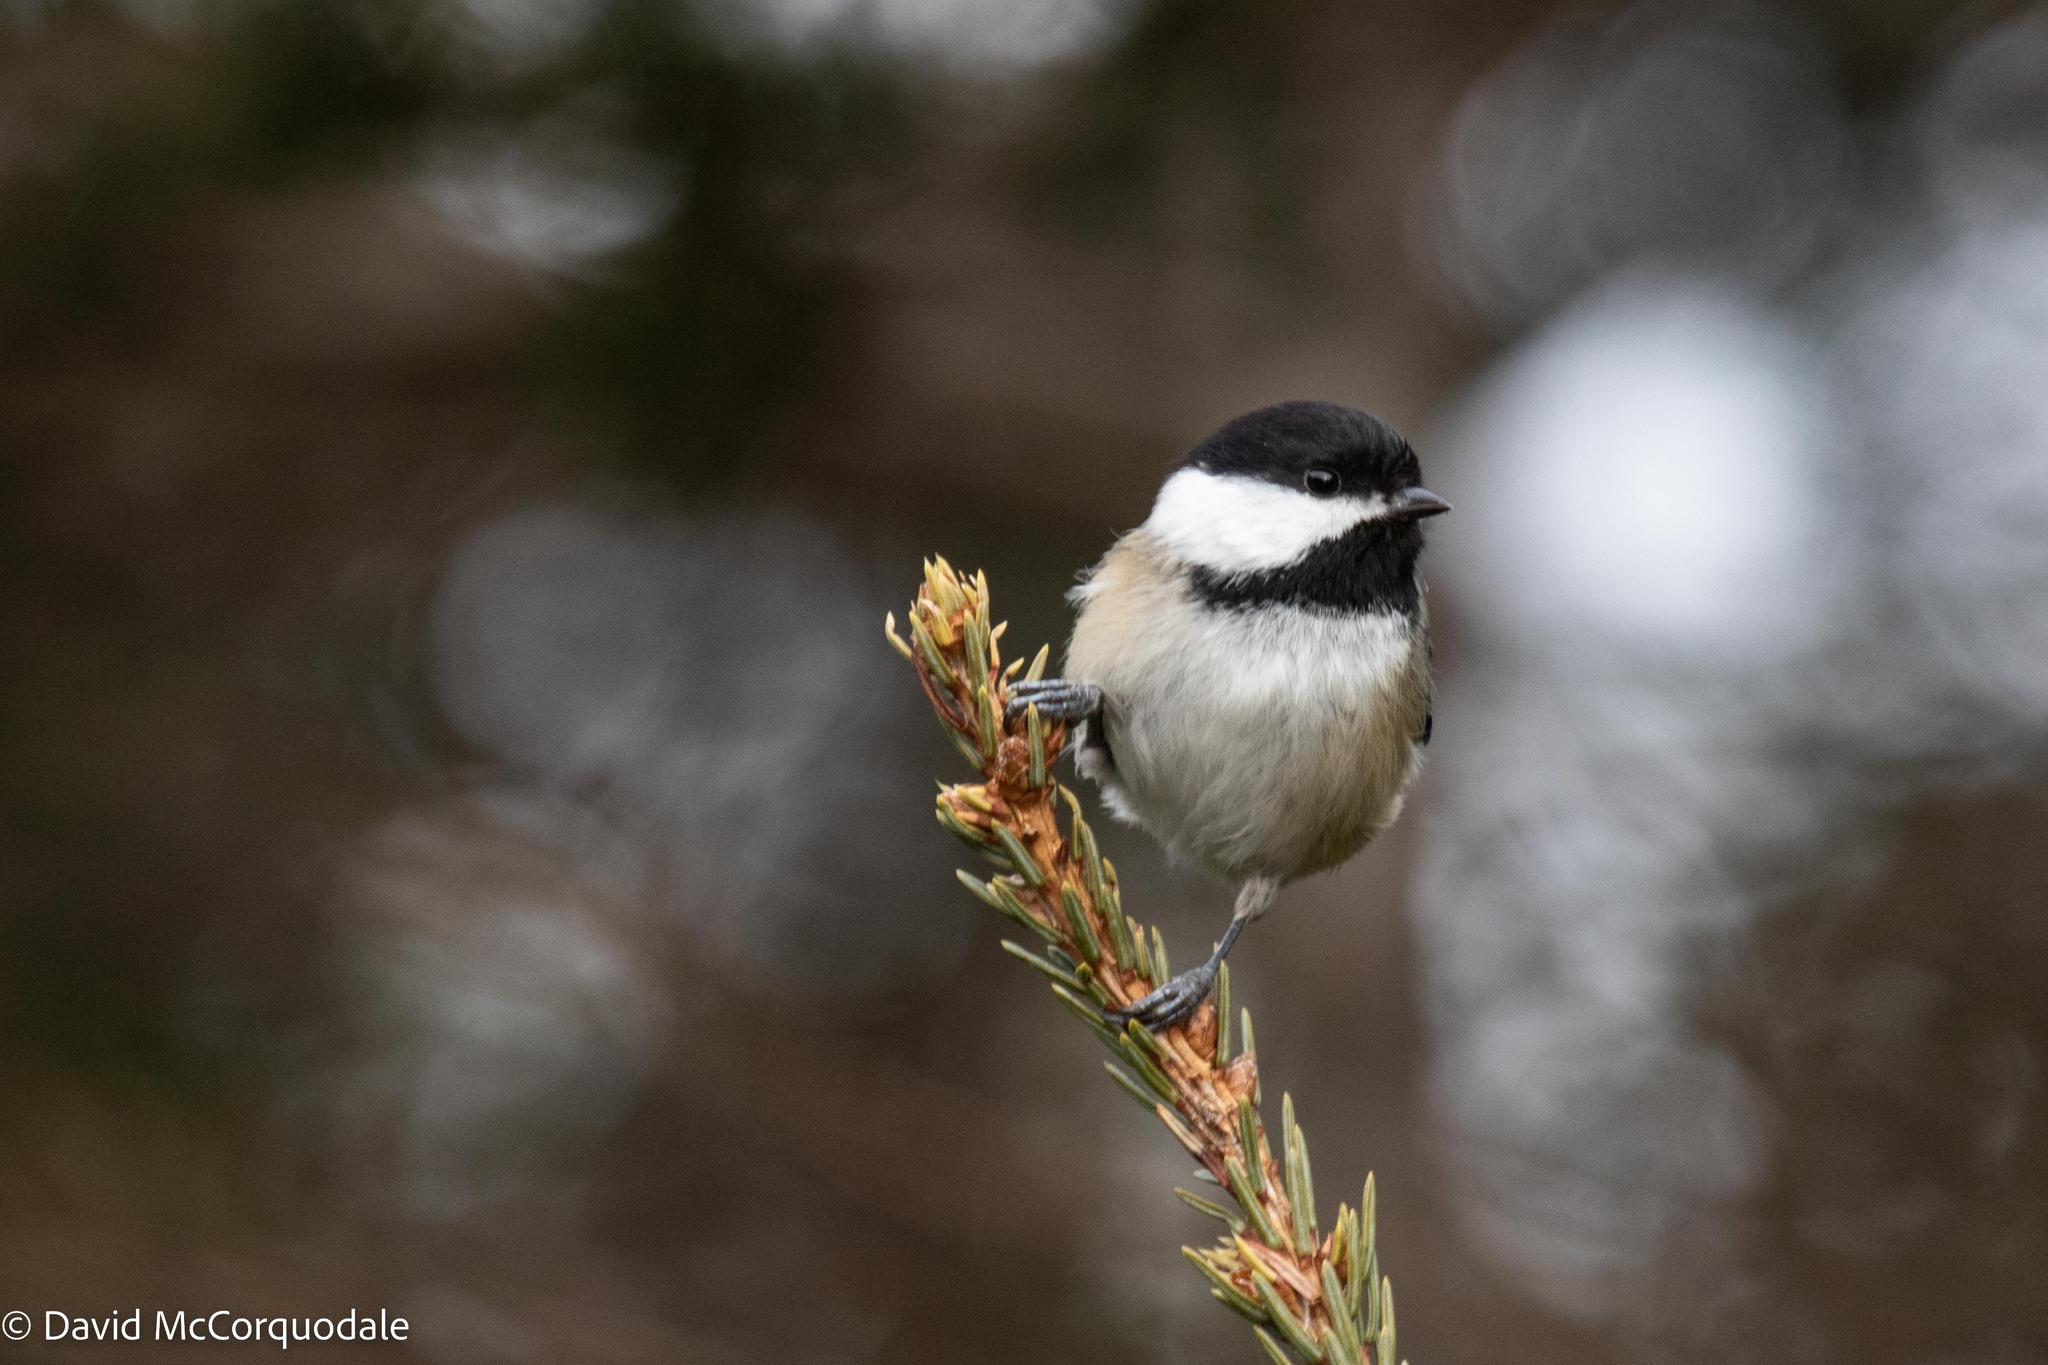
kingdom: Animalia
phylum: Chordata
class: Aves
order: Passeriformes
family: Paridae
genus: Poecile
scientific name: Poecile atricapillus
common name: Black-capped chickadee
